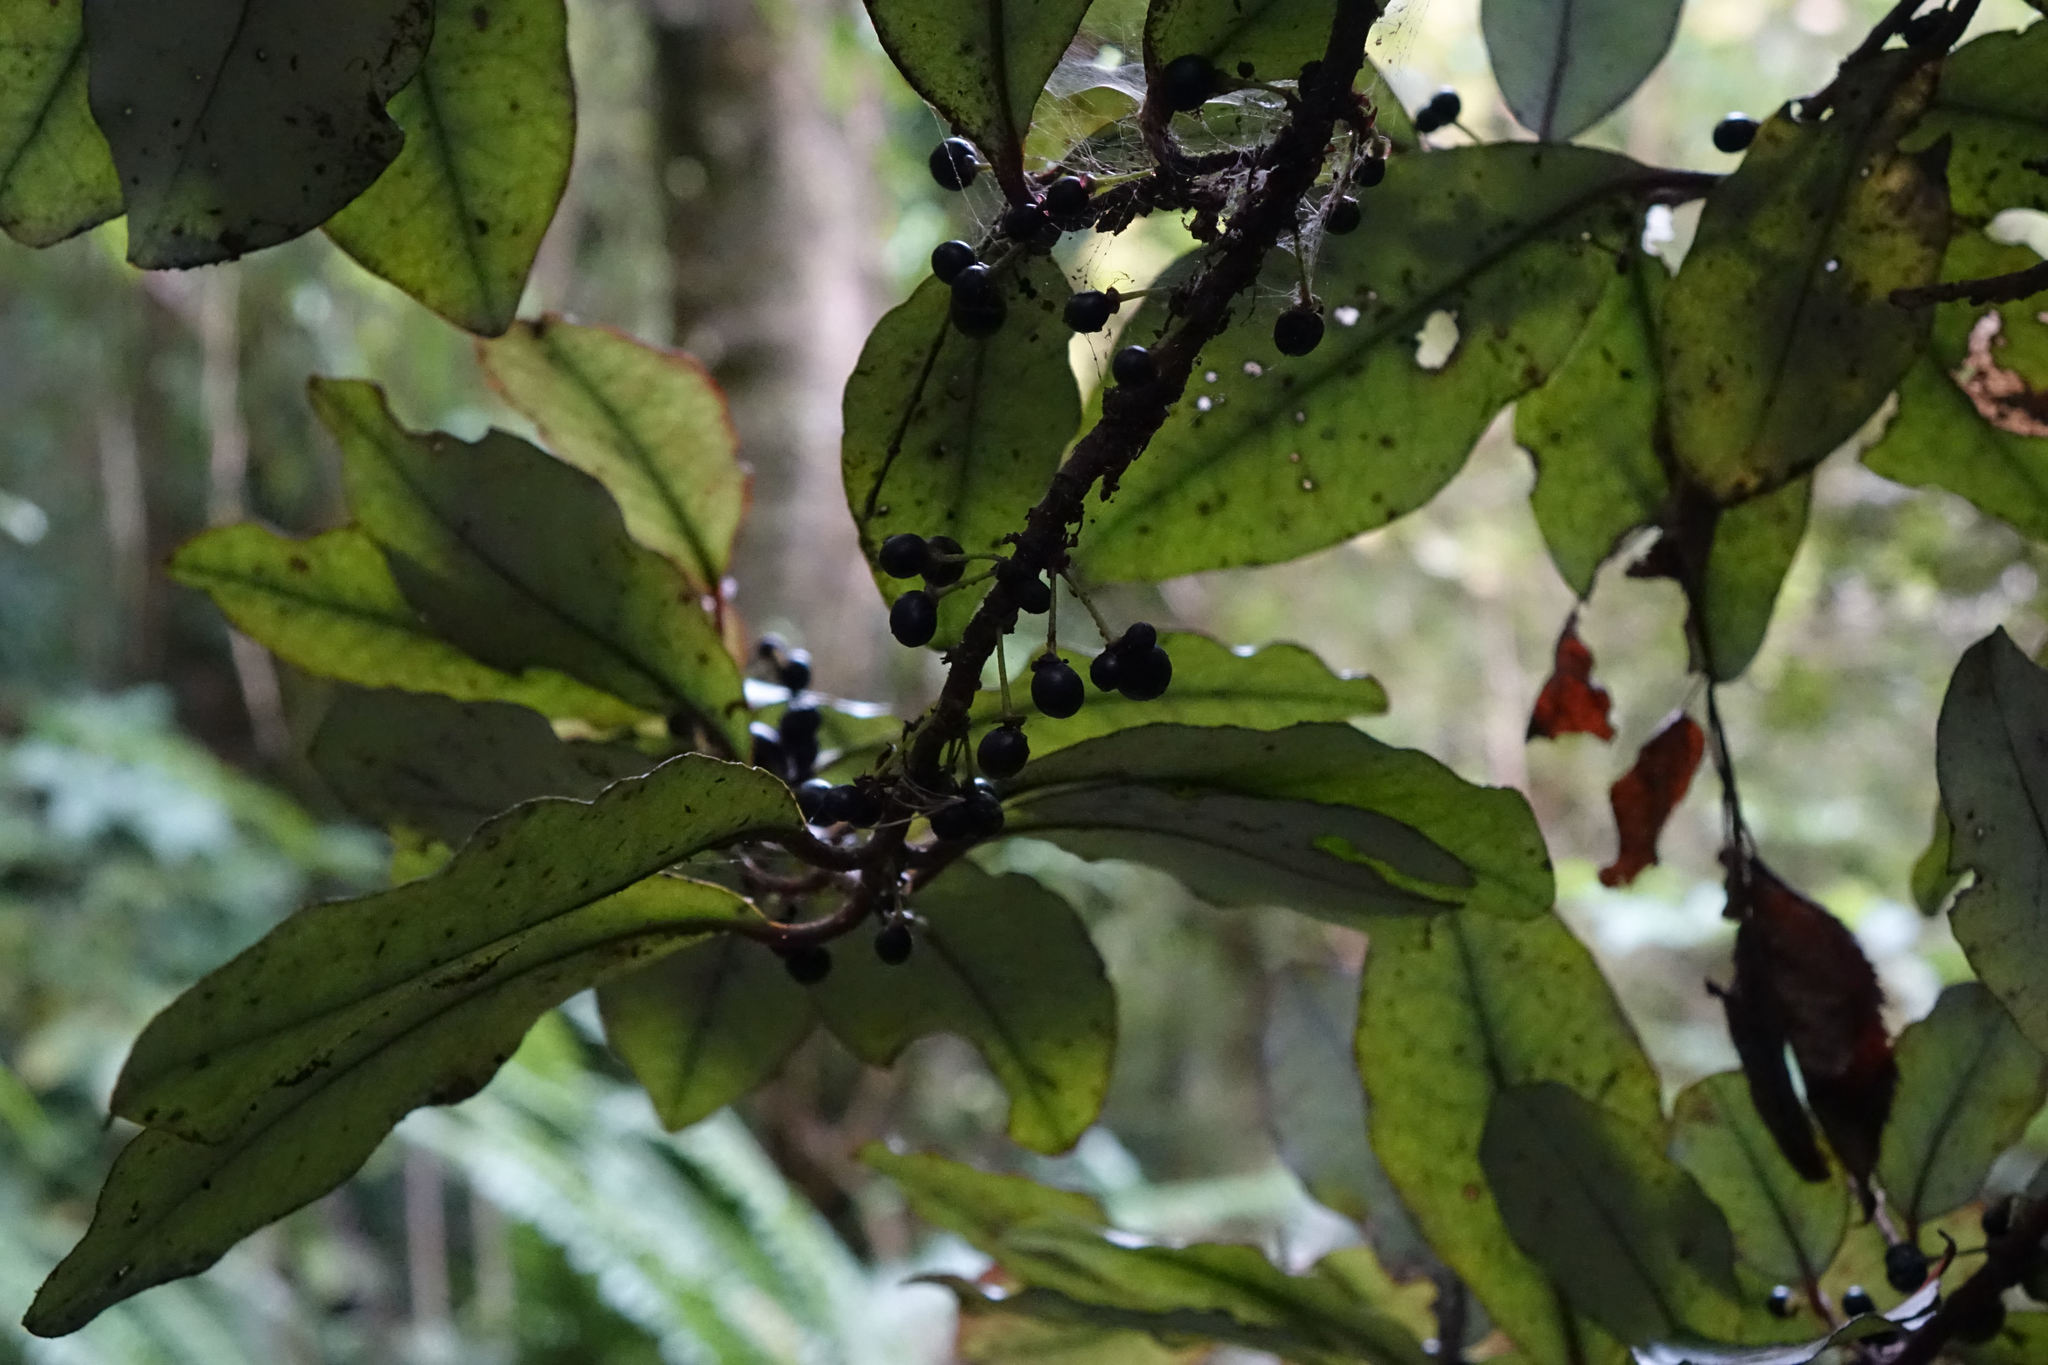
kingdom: Plantae
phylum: Tracheophyta
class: Magnoliopsida
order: Canellales
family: Winteraceae
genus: Pseudowintera
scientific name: Pseudowintera colorata
